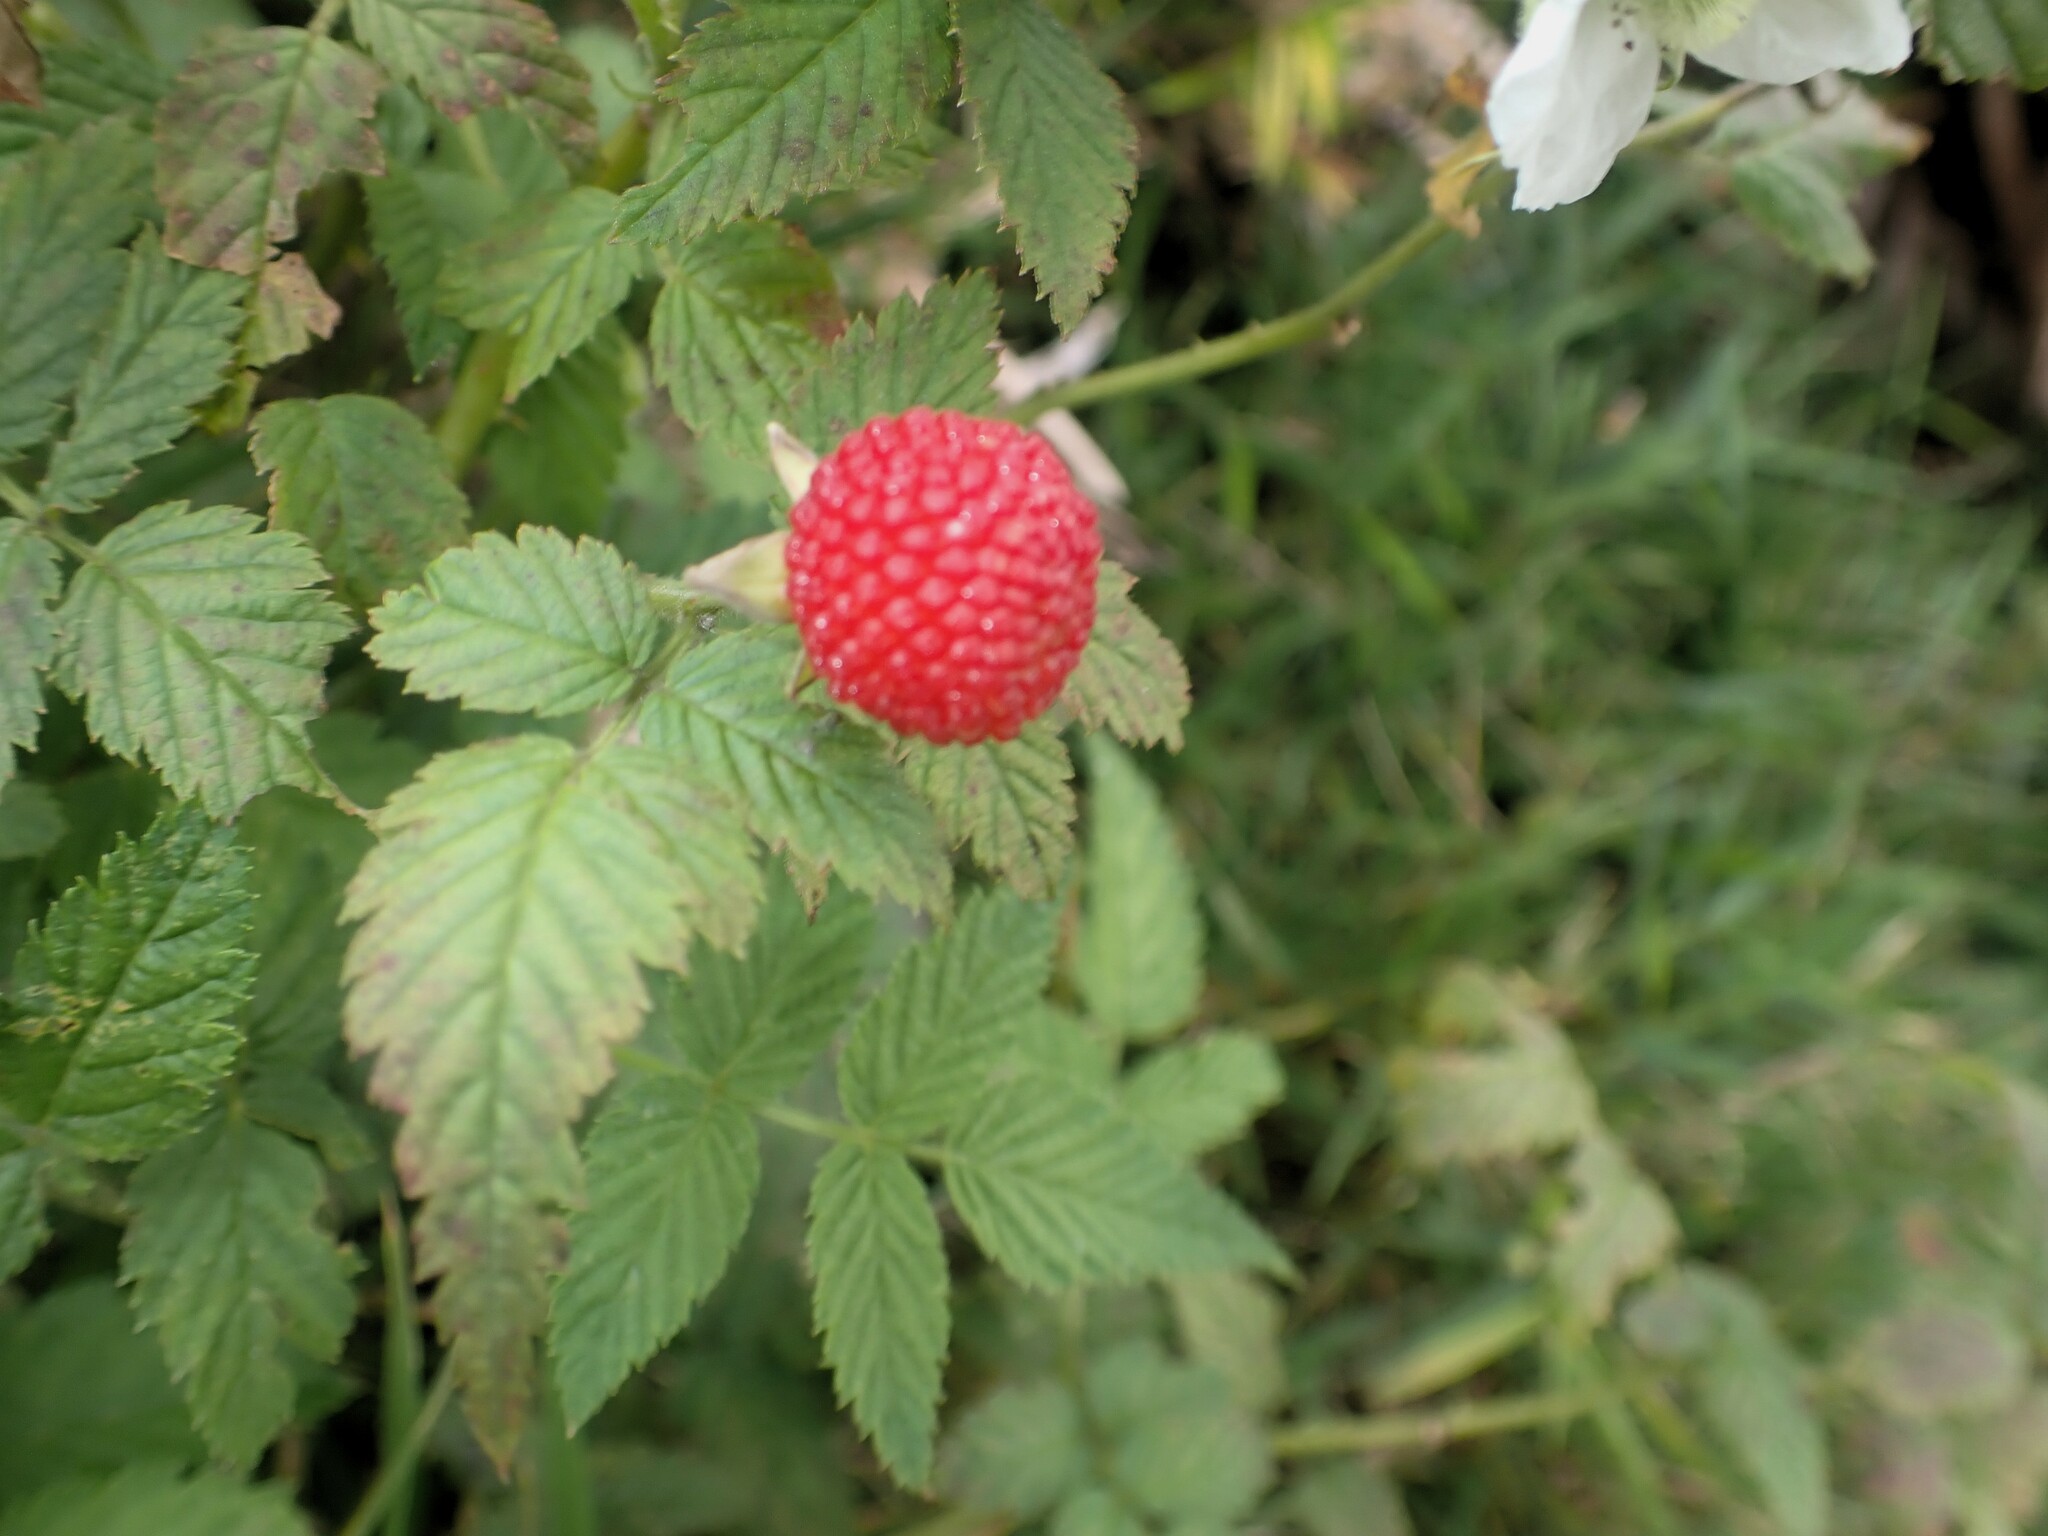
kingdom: Plantae
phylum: Tracheophyta
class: Magnoliopsida
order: Rosales
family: Rosaceae
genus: Rubus
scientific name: Rubus rosifolius
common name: Roseleaf raspberry
